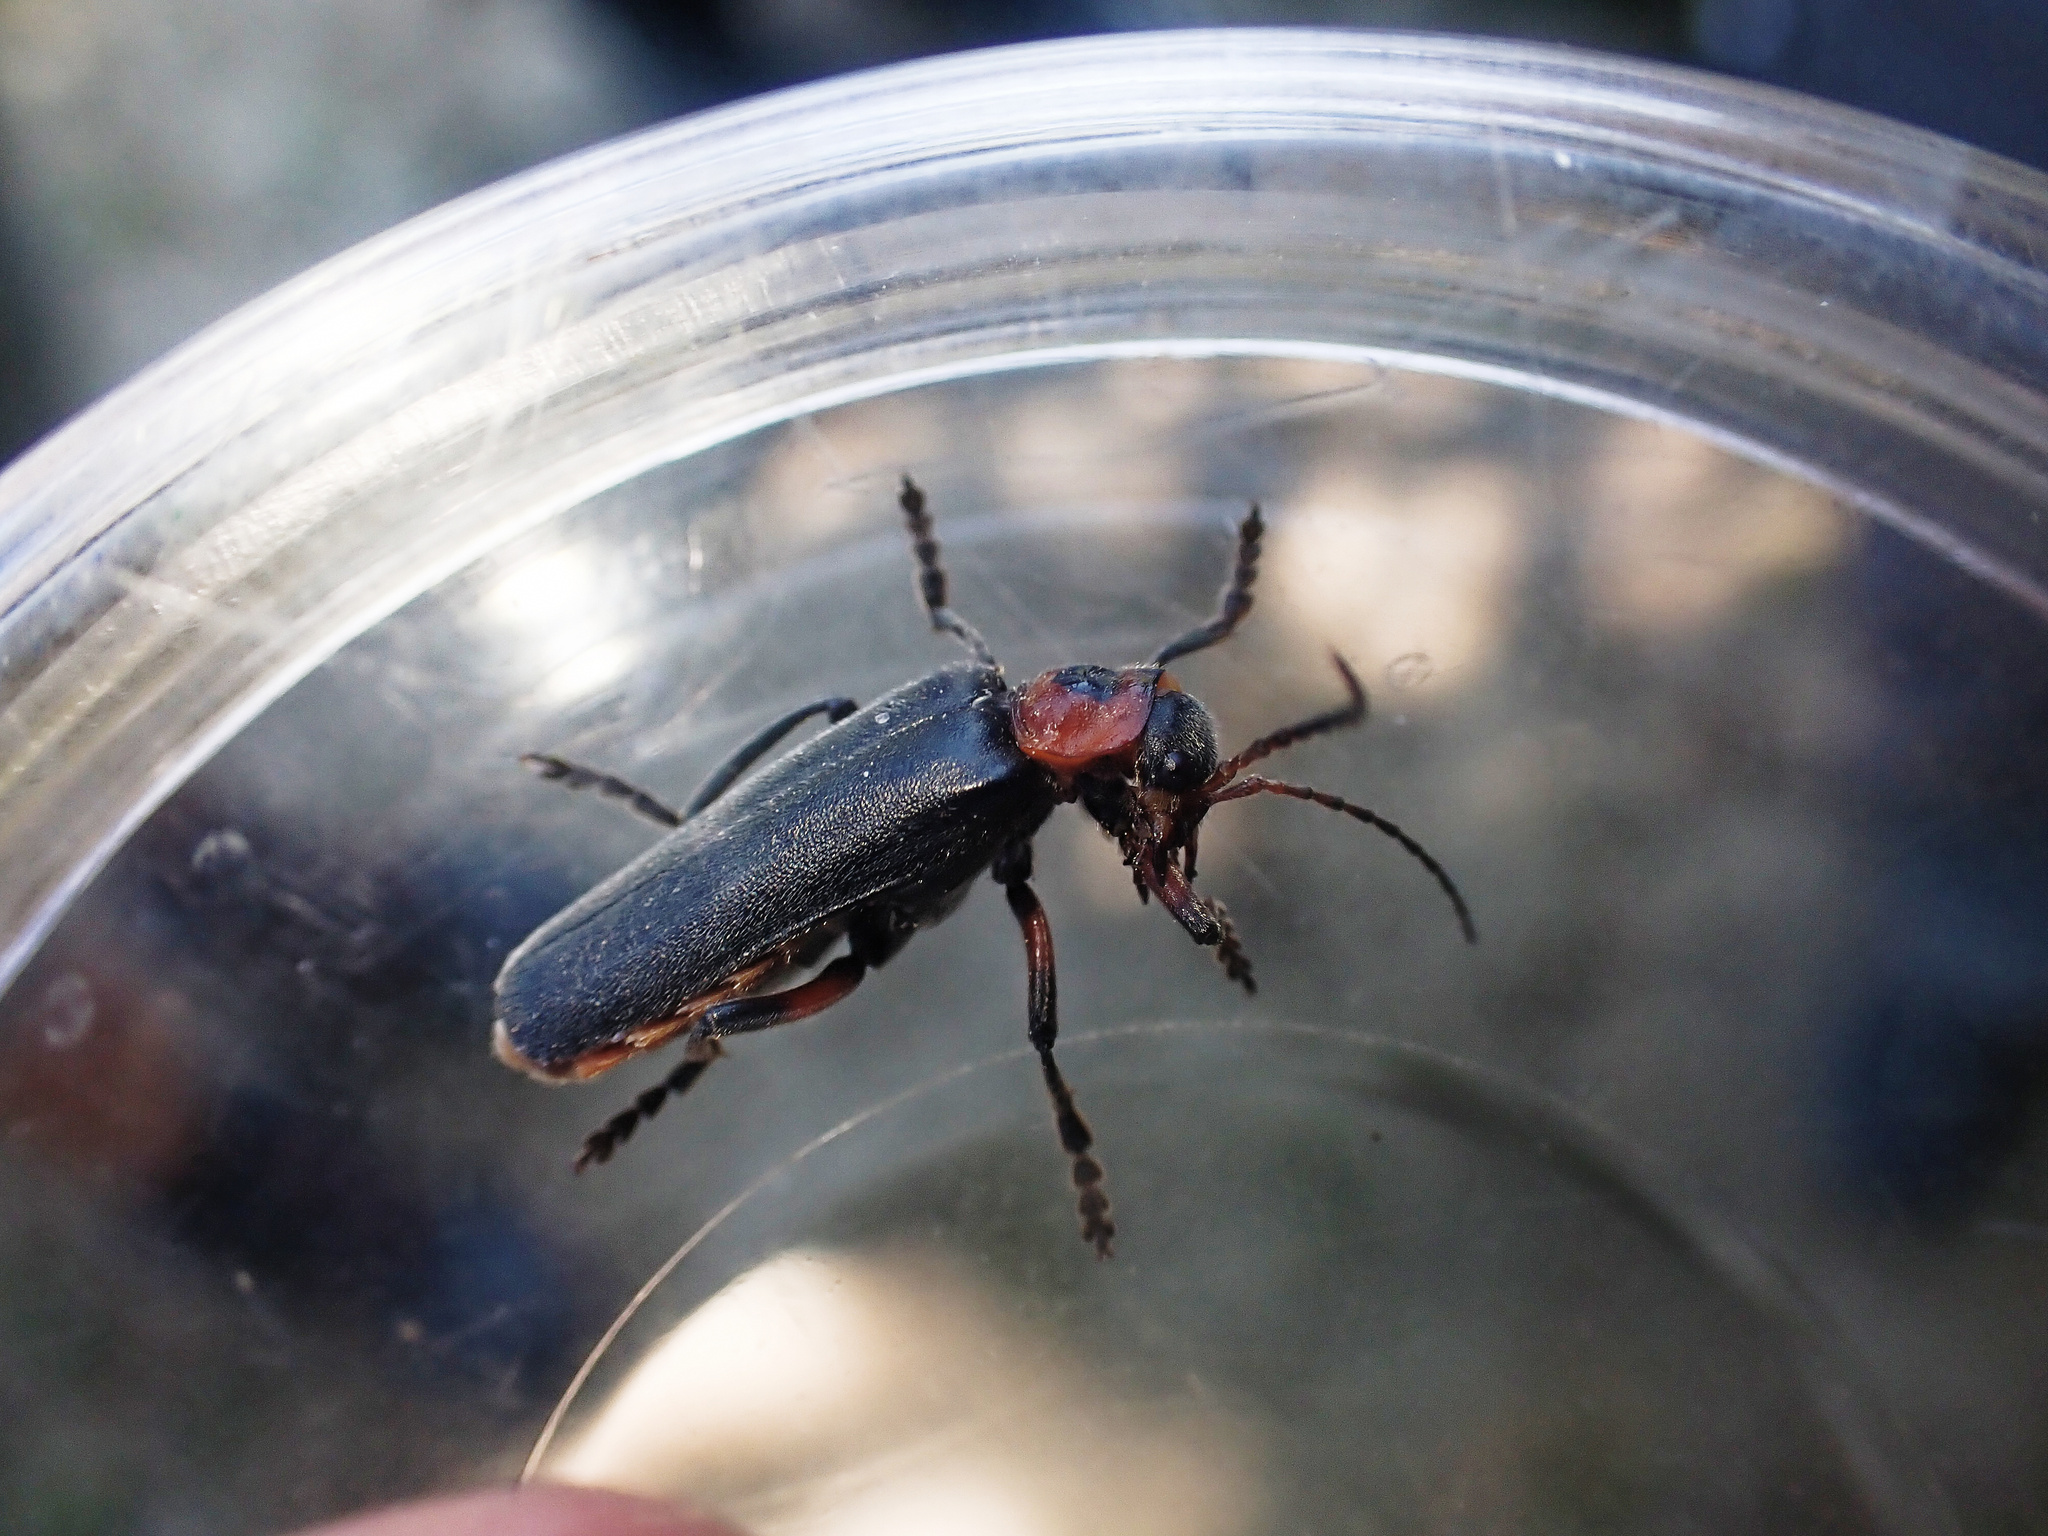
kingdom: Animalia
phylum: Arthropoda
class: Insecta
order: Coleoptera
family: Cantharidae
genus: Cantharis
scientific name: Cantharis rustica
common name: Soldier beetle
